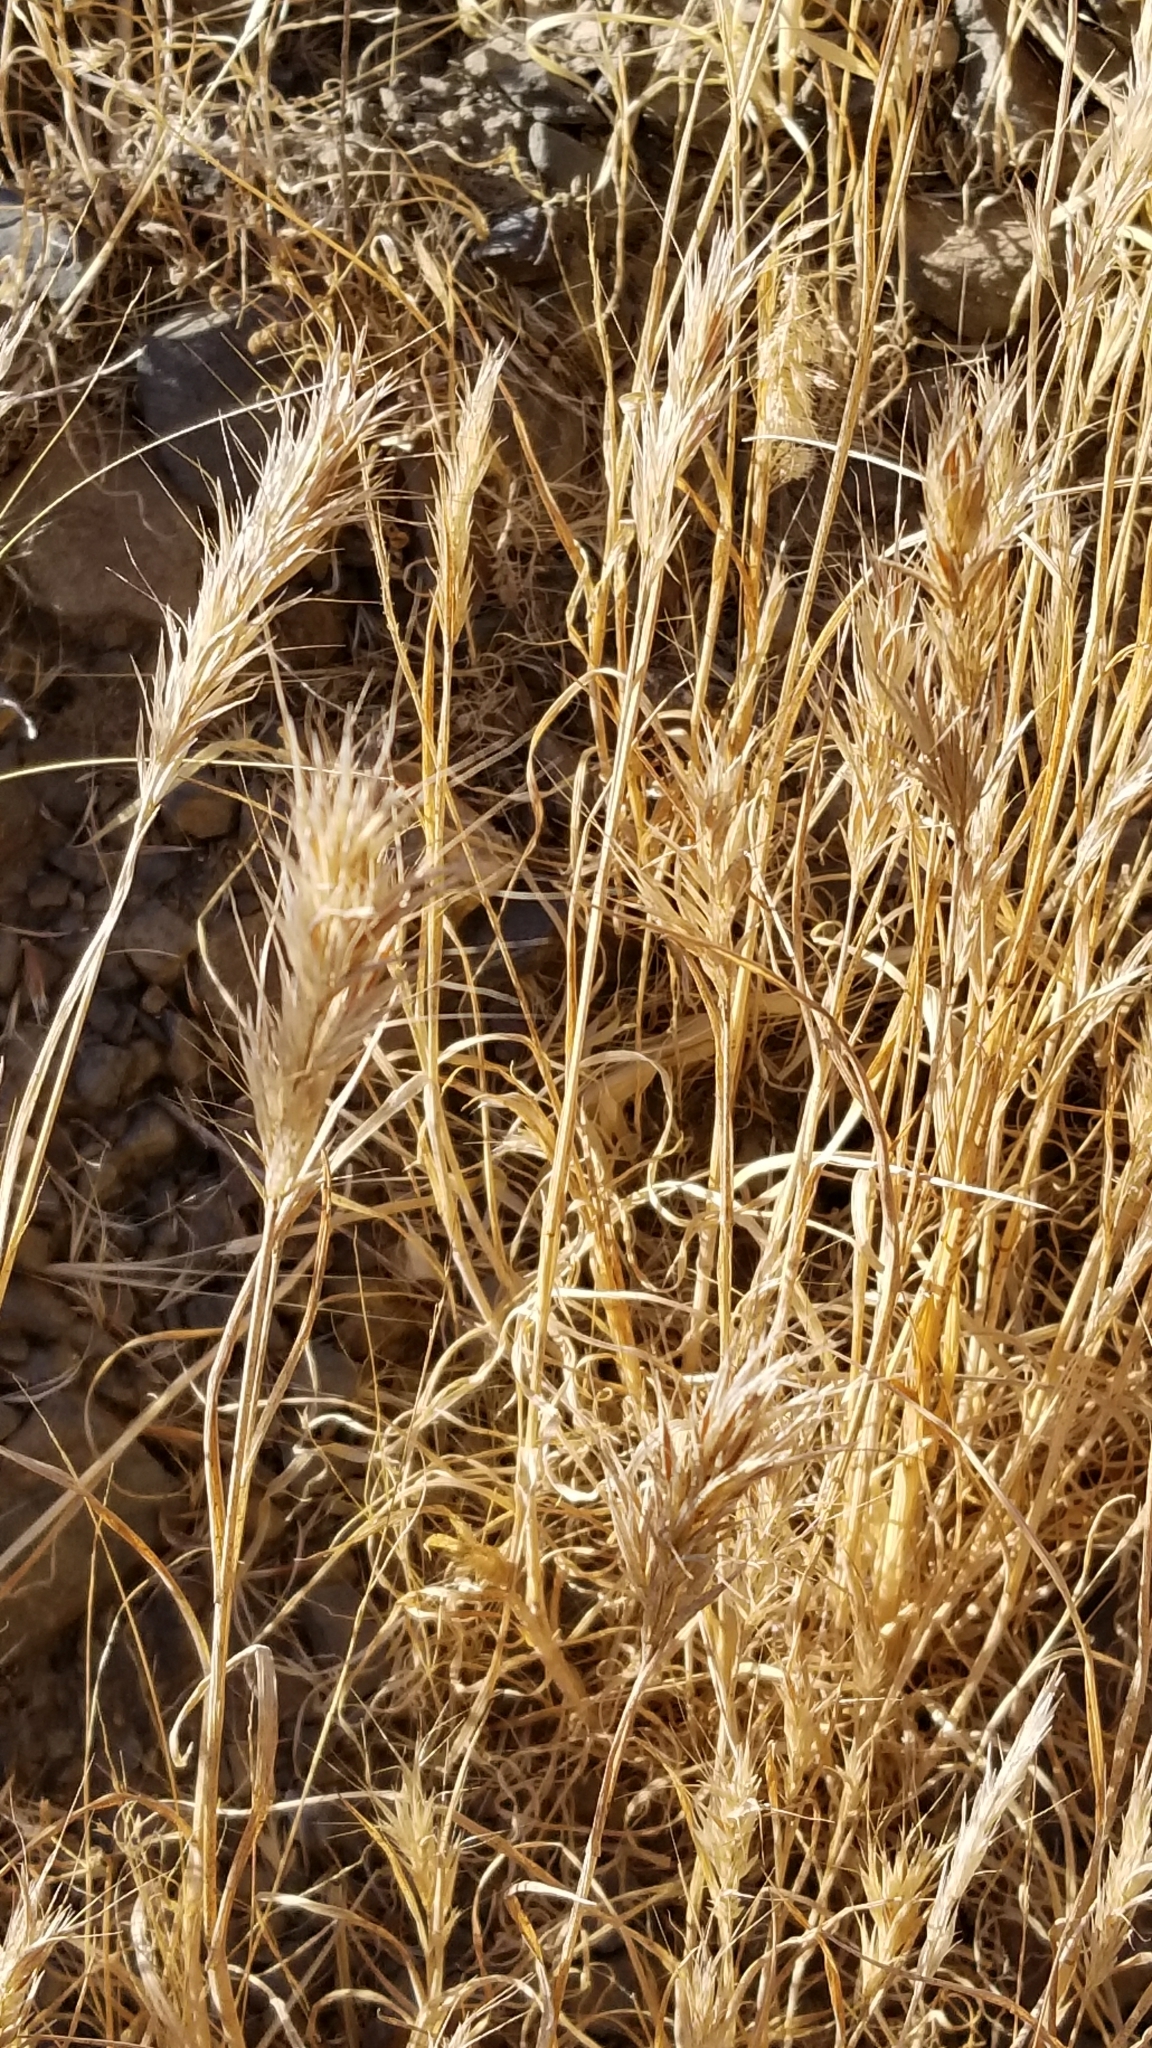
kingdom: Plantae
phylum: Tracheophyta
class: Liliopsida
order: Poales
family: Poaceae
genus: Bromus
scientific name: Bromus rubens
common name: Red brome
